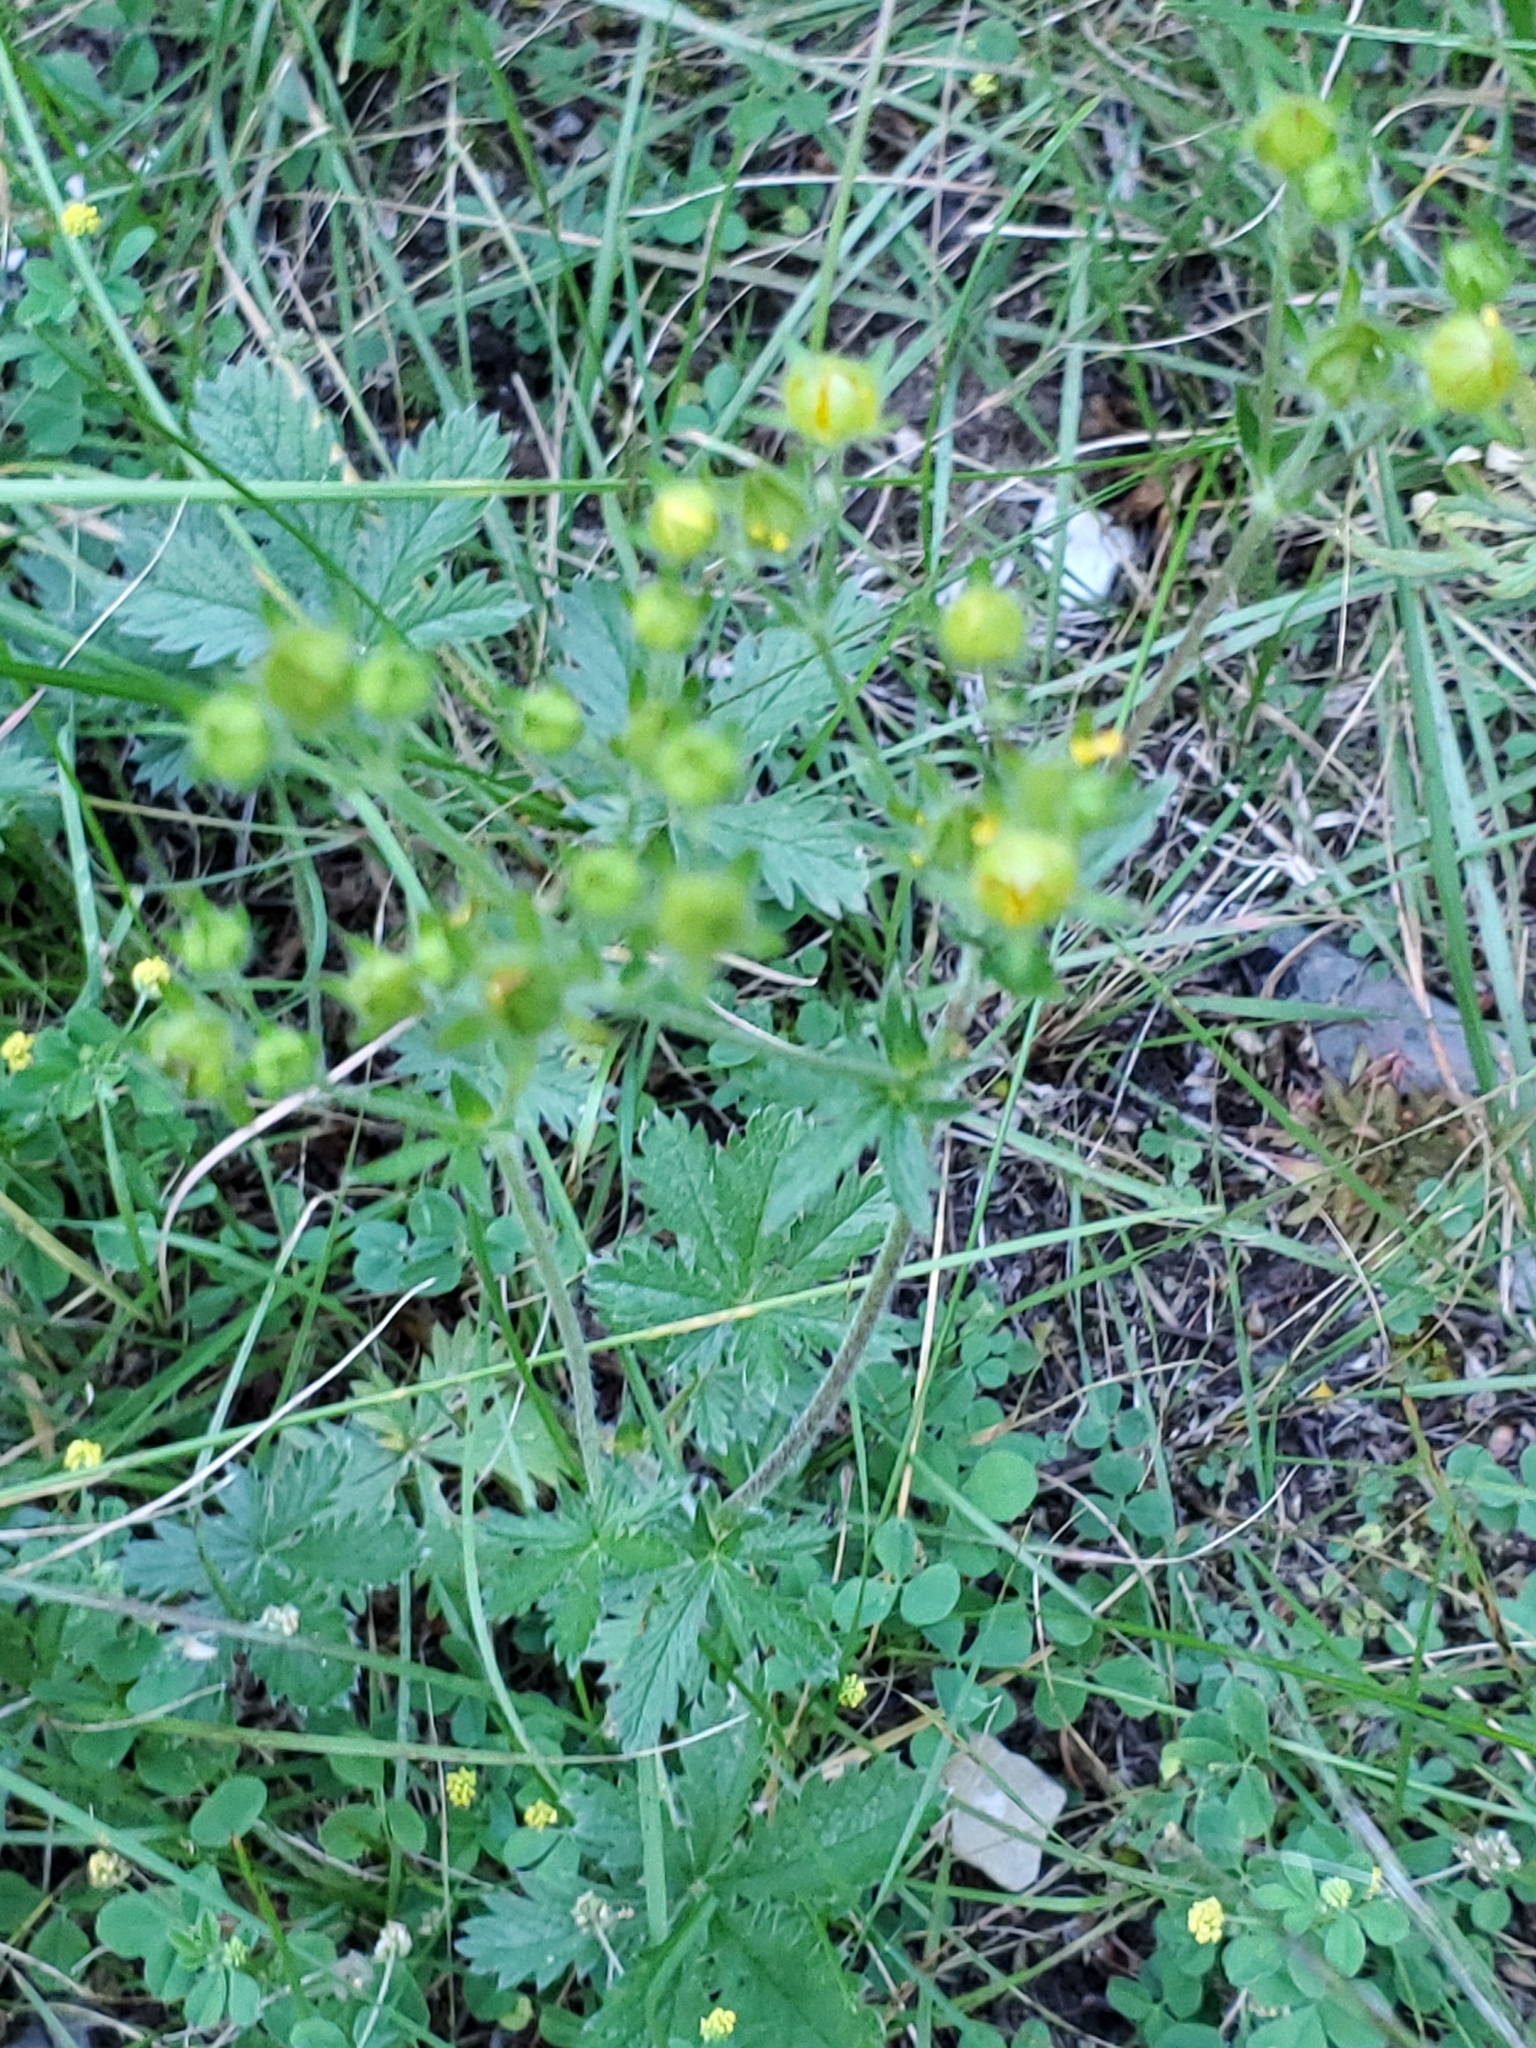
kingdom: Plantae
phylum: Tracheophyta
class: Magnoliopsida
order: Rosales
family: Rosaceae
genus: Potentilla
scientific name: Potentilla recta
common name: Sulphur cinquefoil
